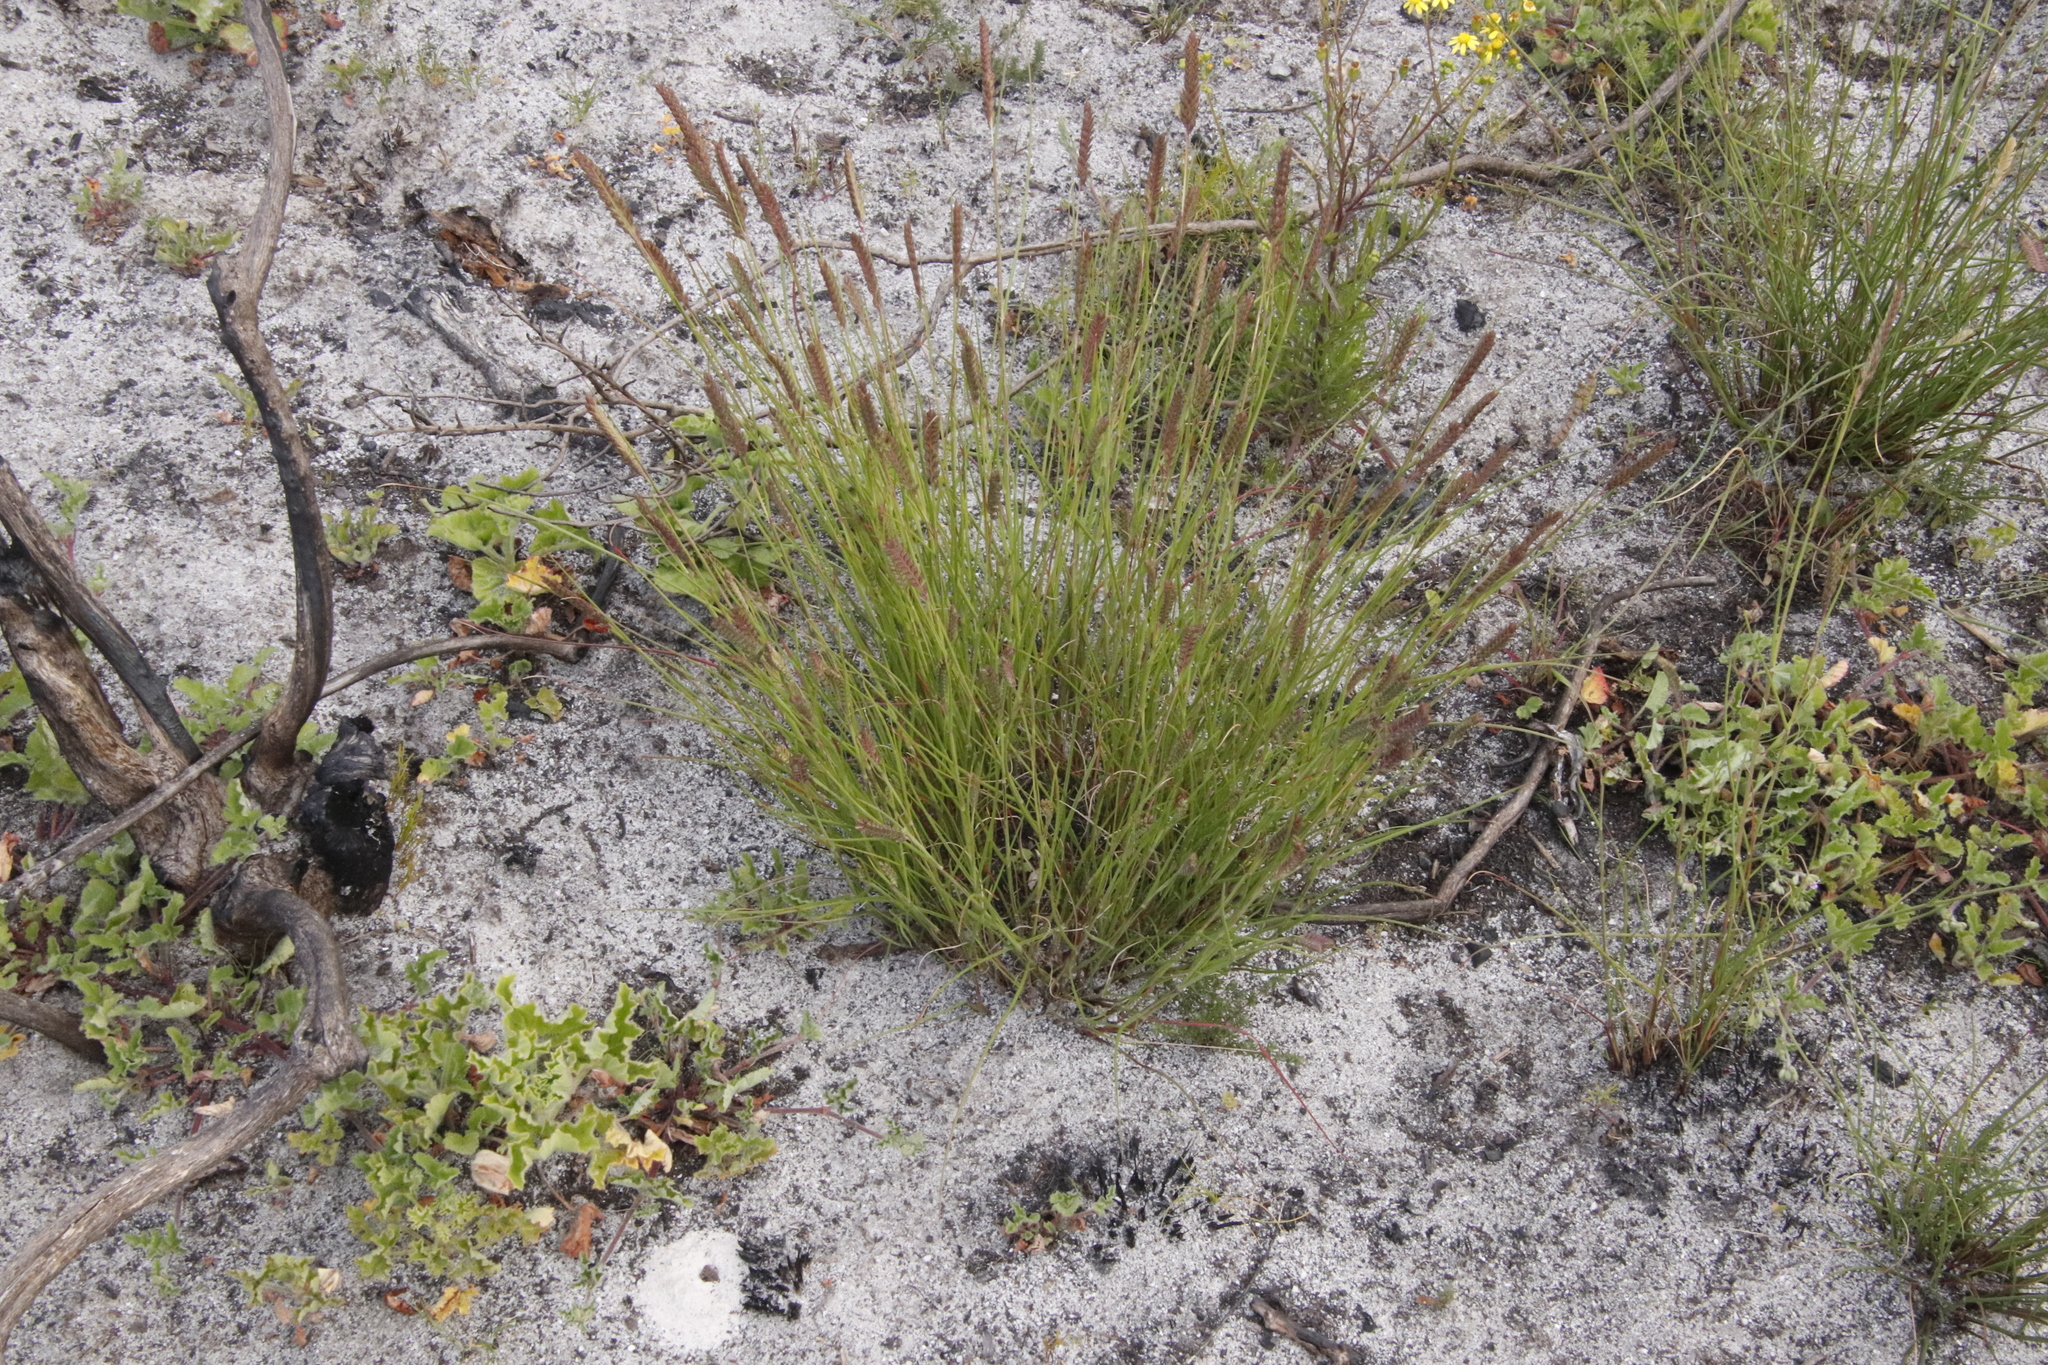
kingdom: Plantae
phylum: Tracheophyta
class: Liliopsida
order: Poales
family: Poaceae
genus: Tribolium
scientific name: Tribolium uniolae
